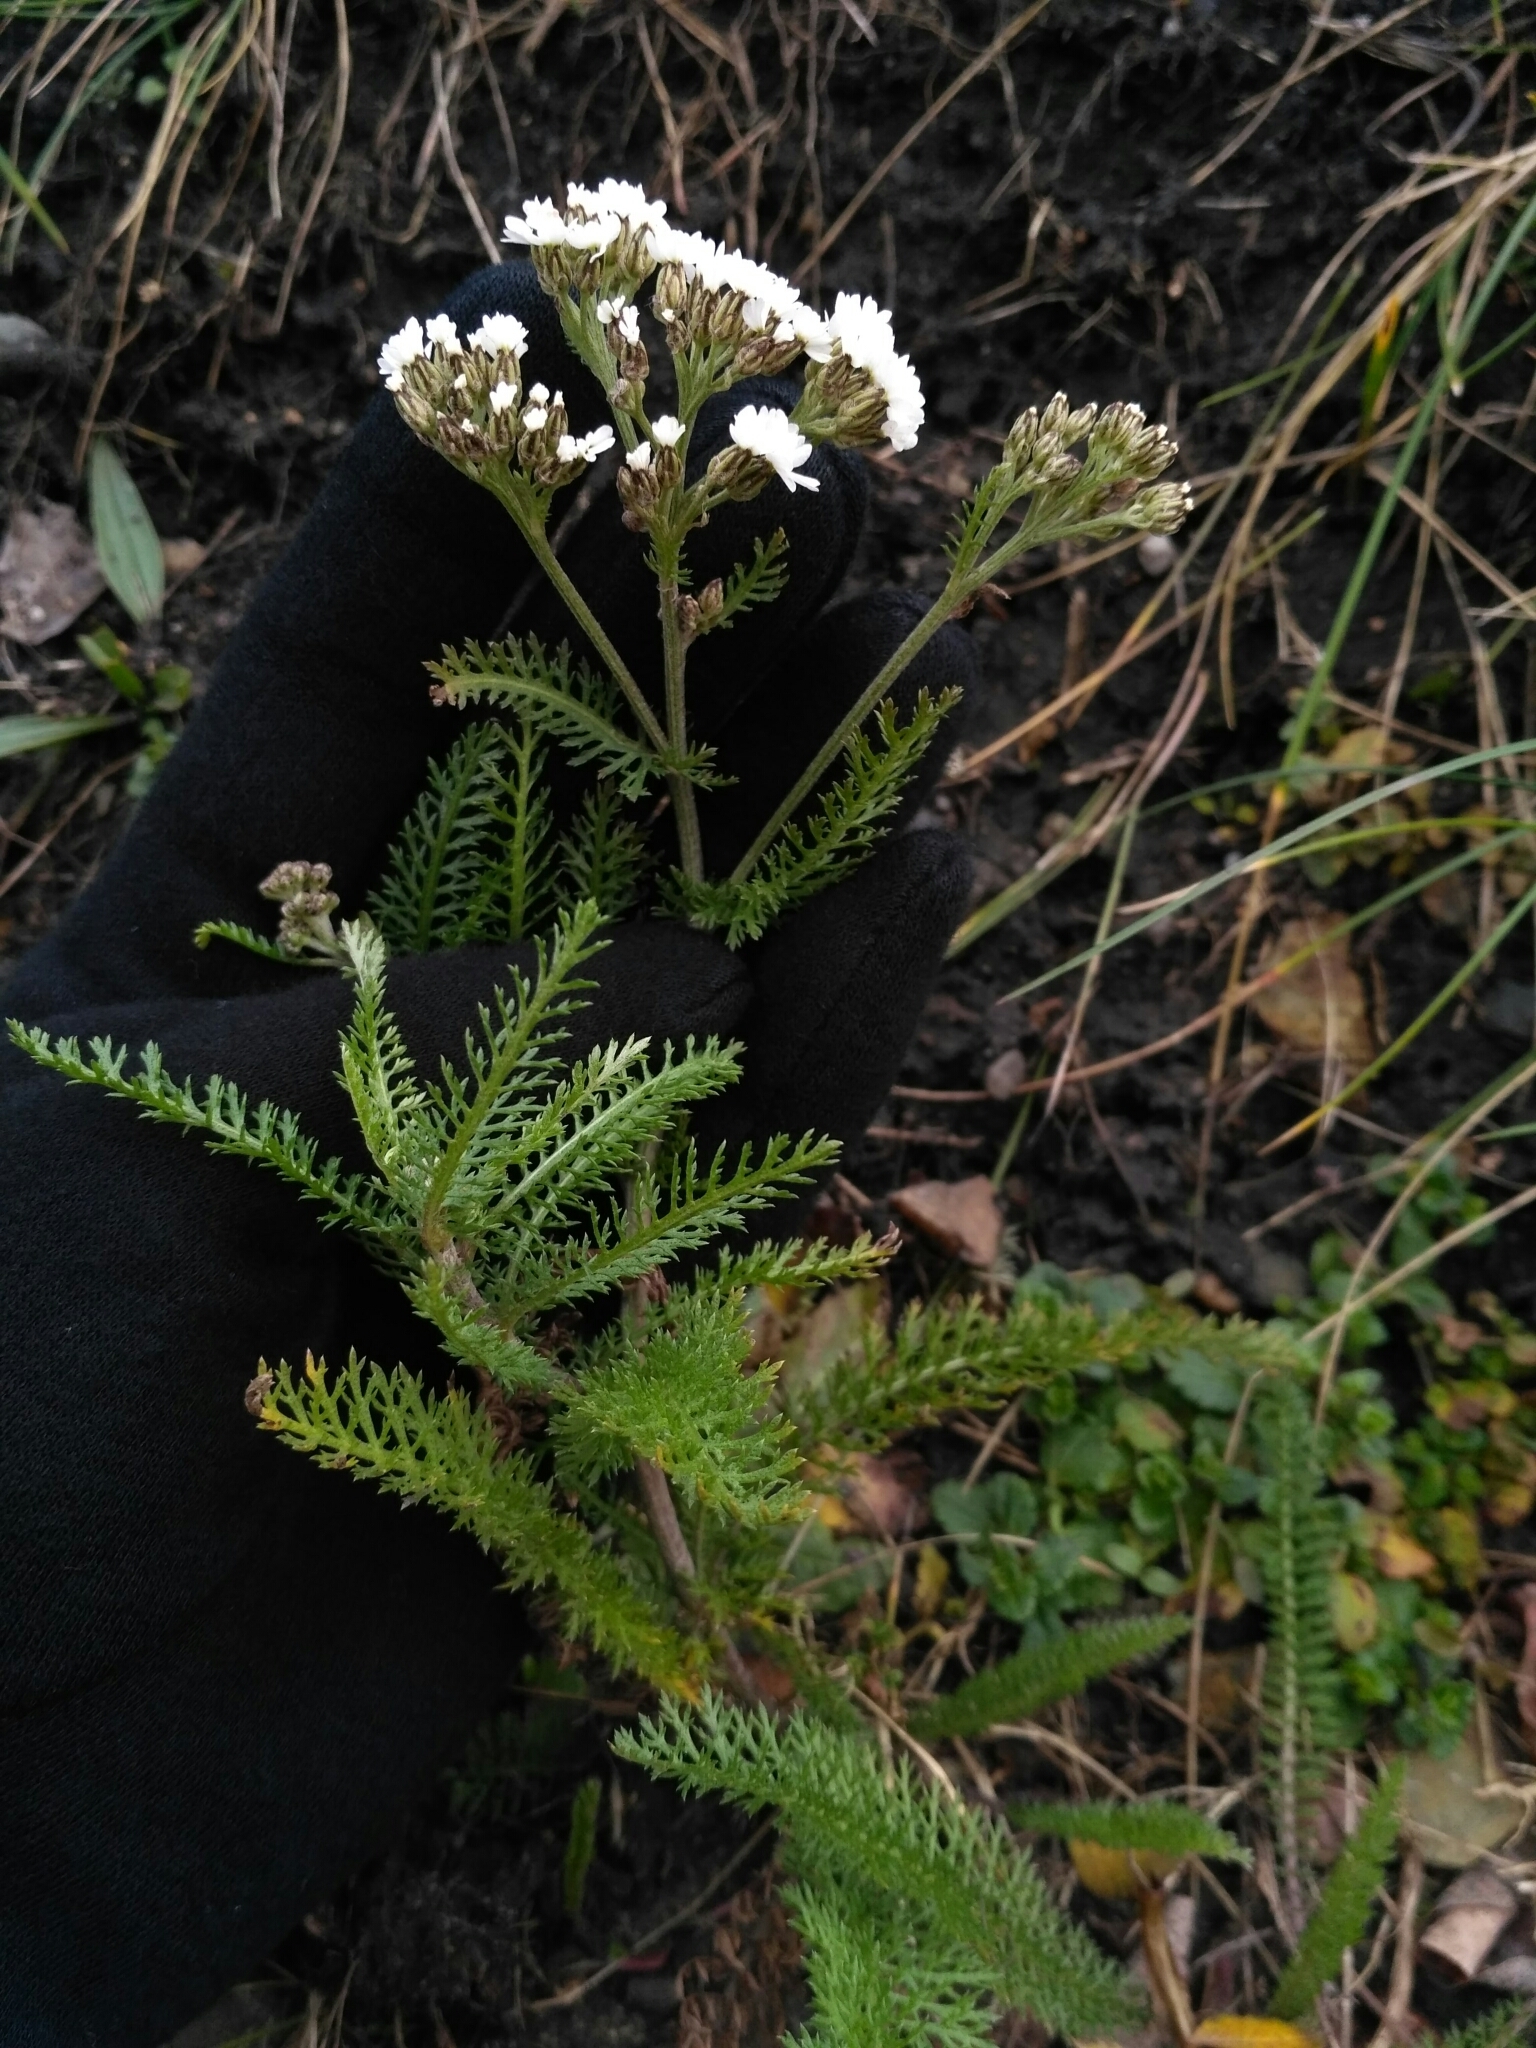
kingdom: Plantae
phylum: Tracheophyta
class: Magnoliopsida
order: Asterales
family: Asteraceae
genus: Achillea
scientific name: Achillea millefolium
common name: Yarrow
